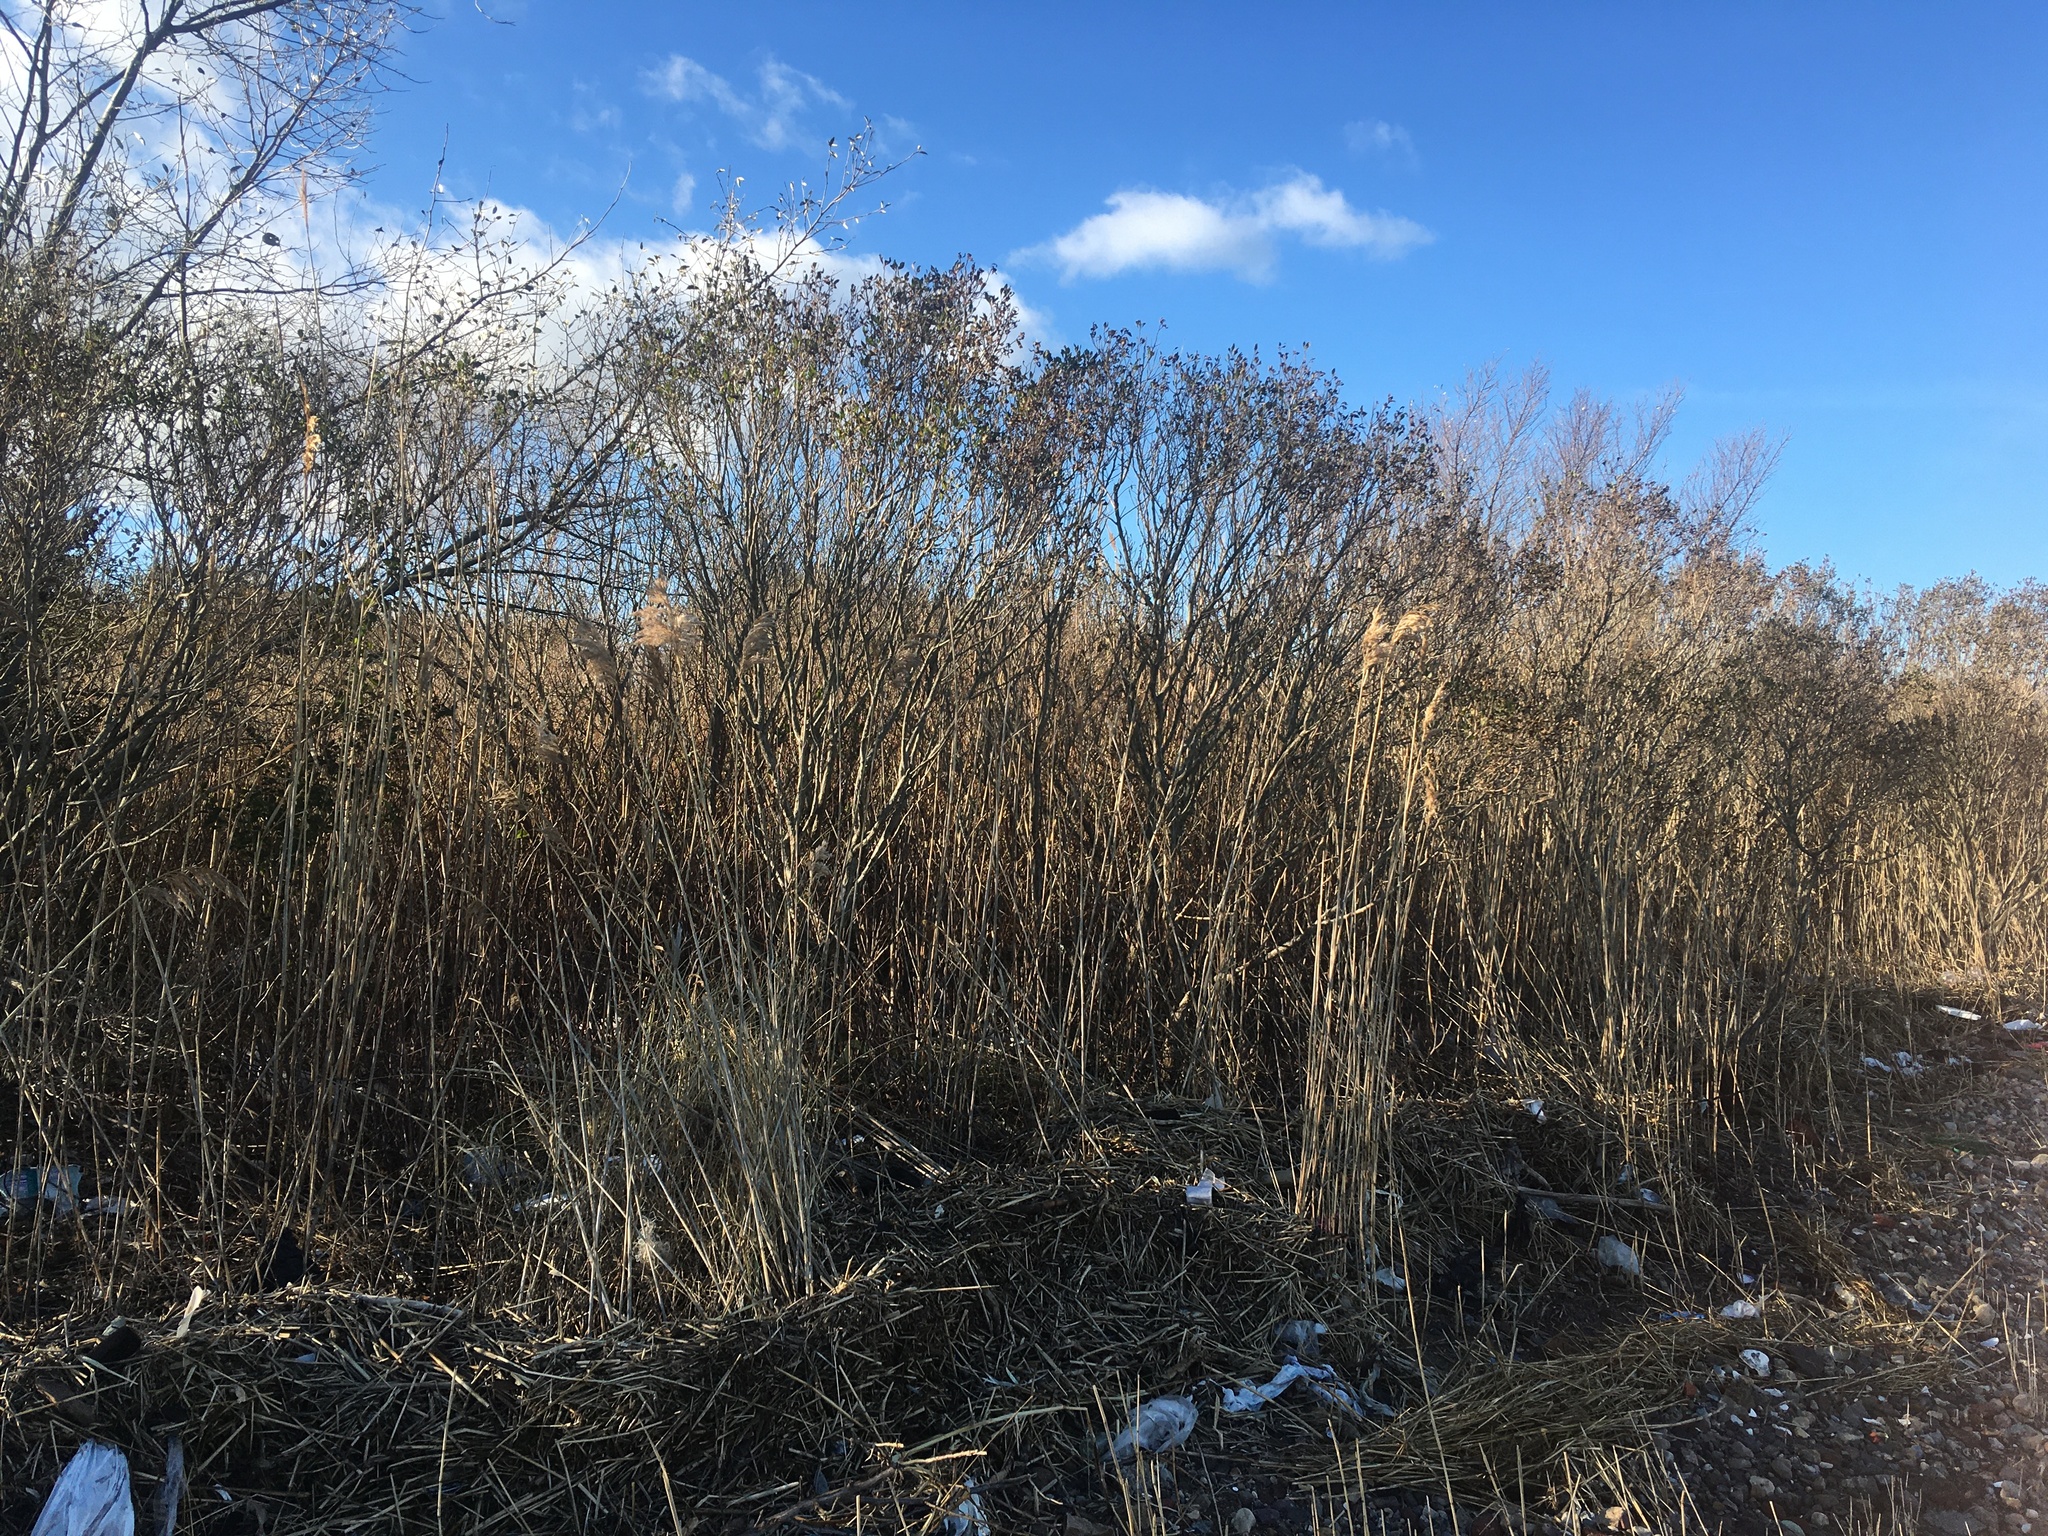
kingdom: Plantae
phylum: Tracheophyta
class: Magnoliopsida
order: Asterales
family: Asteraceae
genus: Baccharis
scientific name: Baccharis halimifolia
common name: Eastern baccharis
